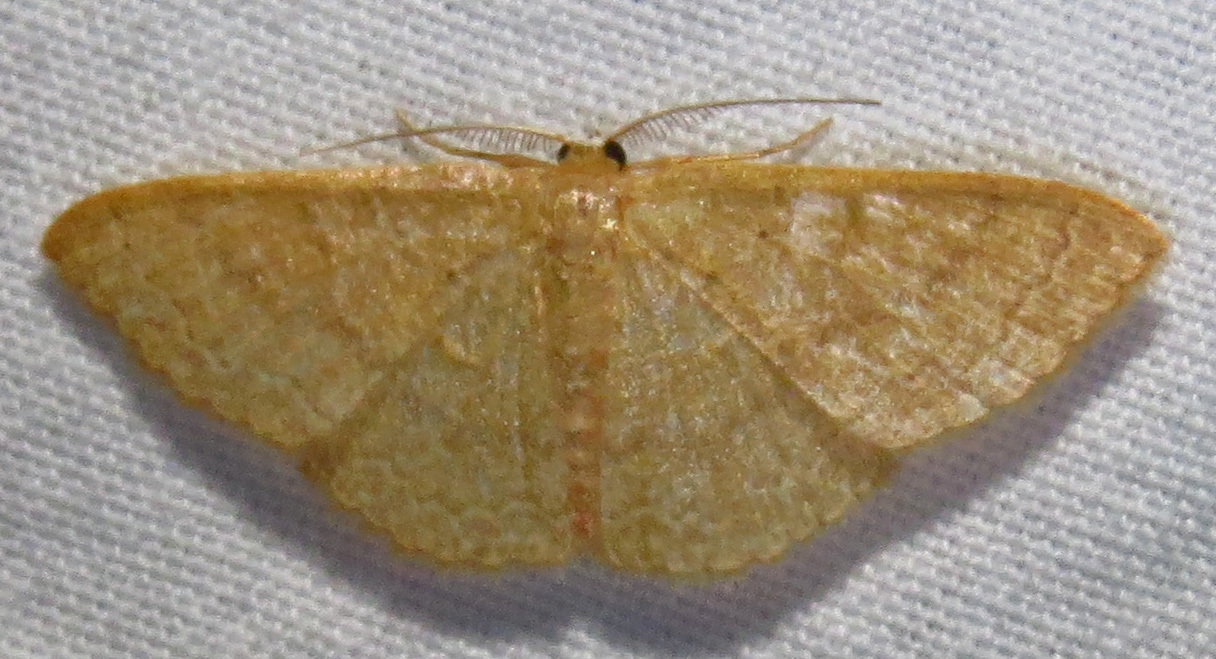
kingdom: Animalia
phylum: Arthropoda
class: Insecta
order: Lepidoptera
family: Geometridae
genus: Pleuroprucha
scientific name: Pleuroprucha insulsaria
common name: Common tan wave
